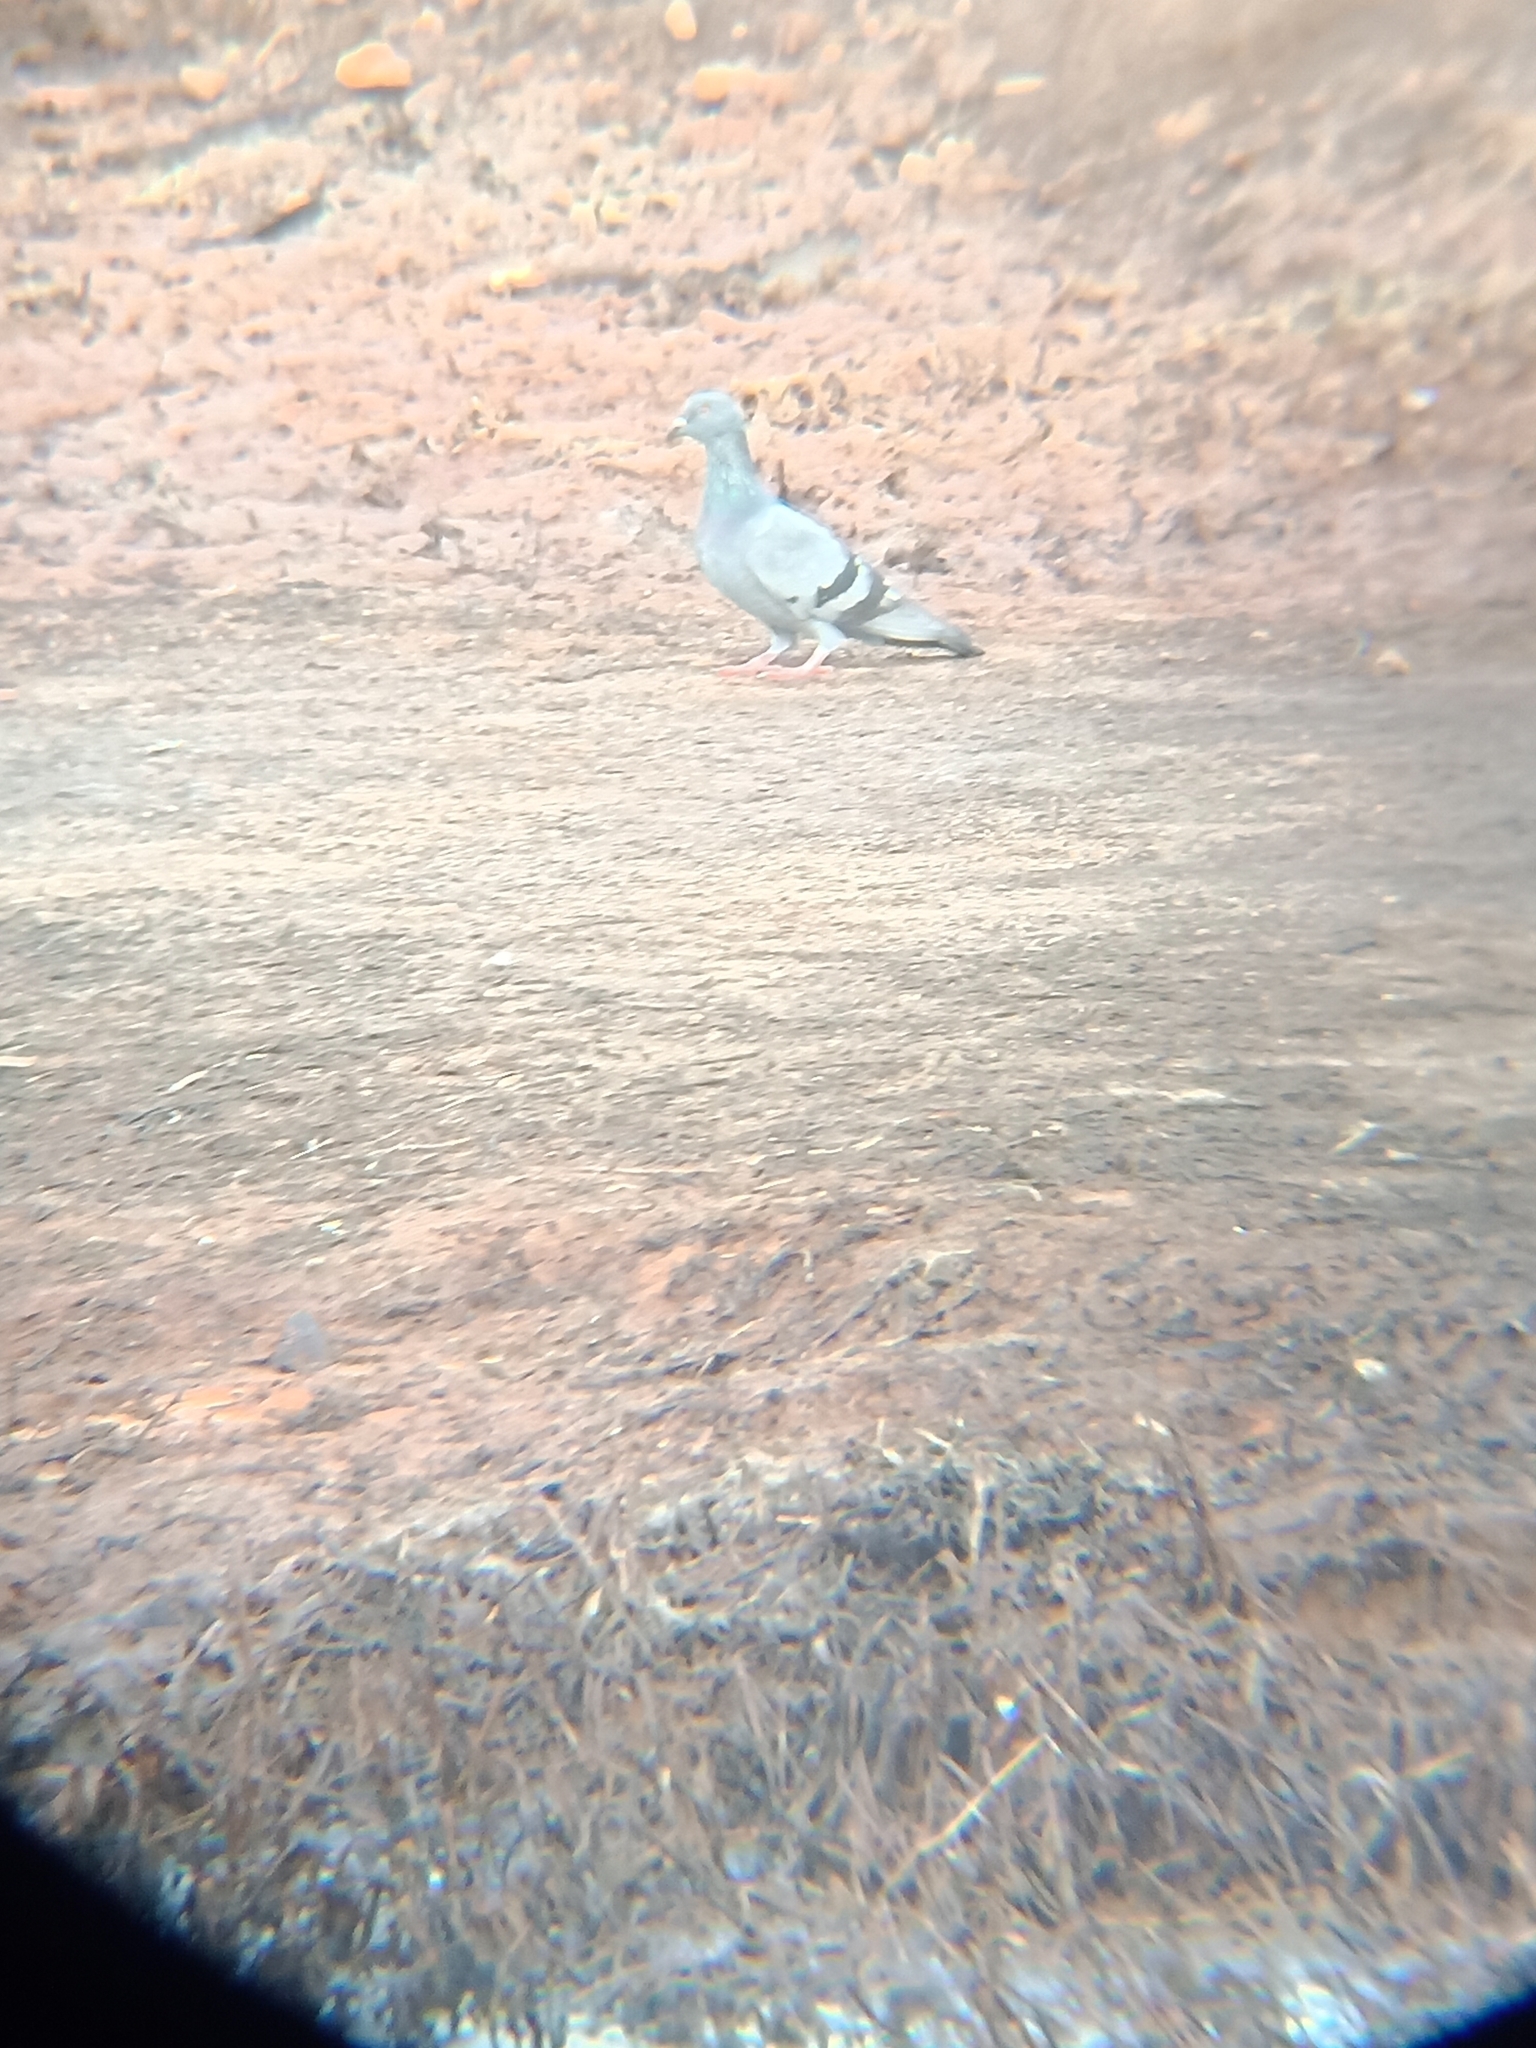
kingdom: Animalia
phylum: Chordata
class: Aves
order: Columbiformes
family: Columbidae
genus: Columba
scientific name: Columba livia
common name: Rock pigeon
